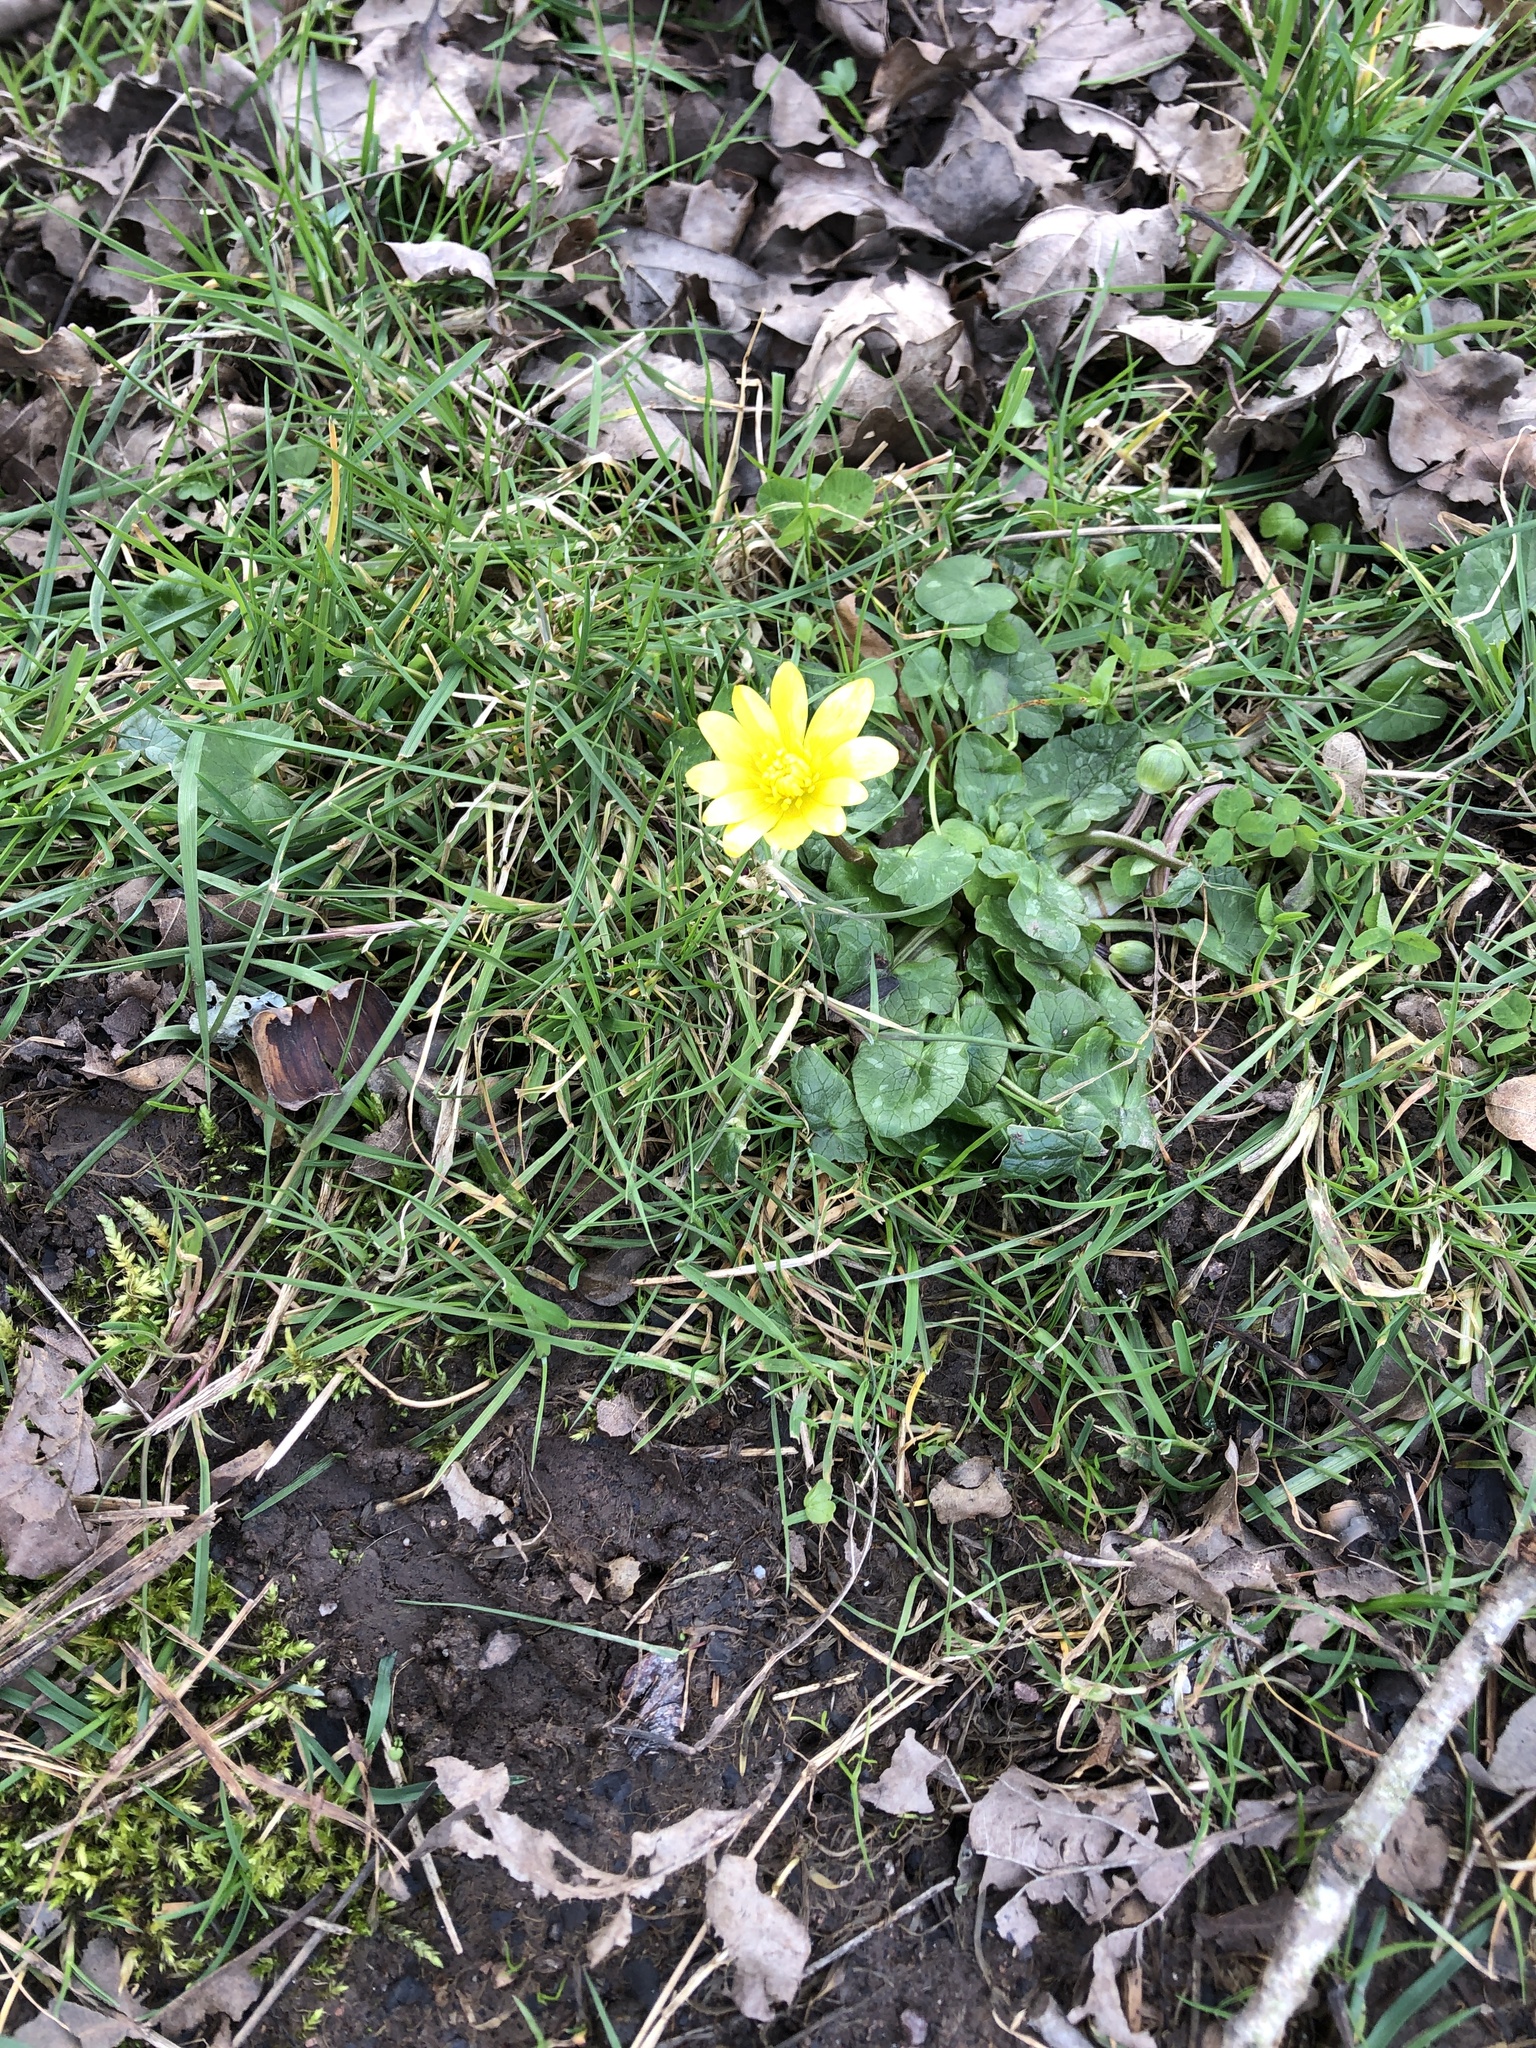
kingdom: Plantae
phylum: Tracheophyta
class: Magnoliopsida
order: Ranunculales
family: Ranunculaceae
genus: Ficaria
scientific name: Ficaria verna
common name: Lesser celandine
